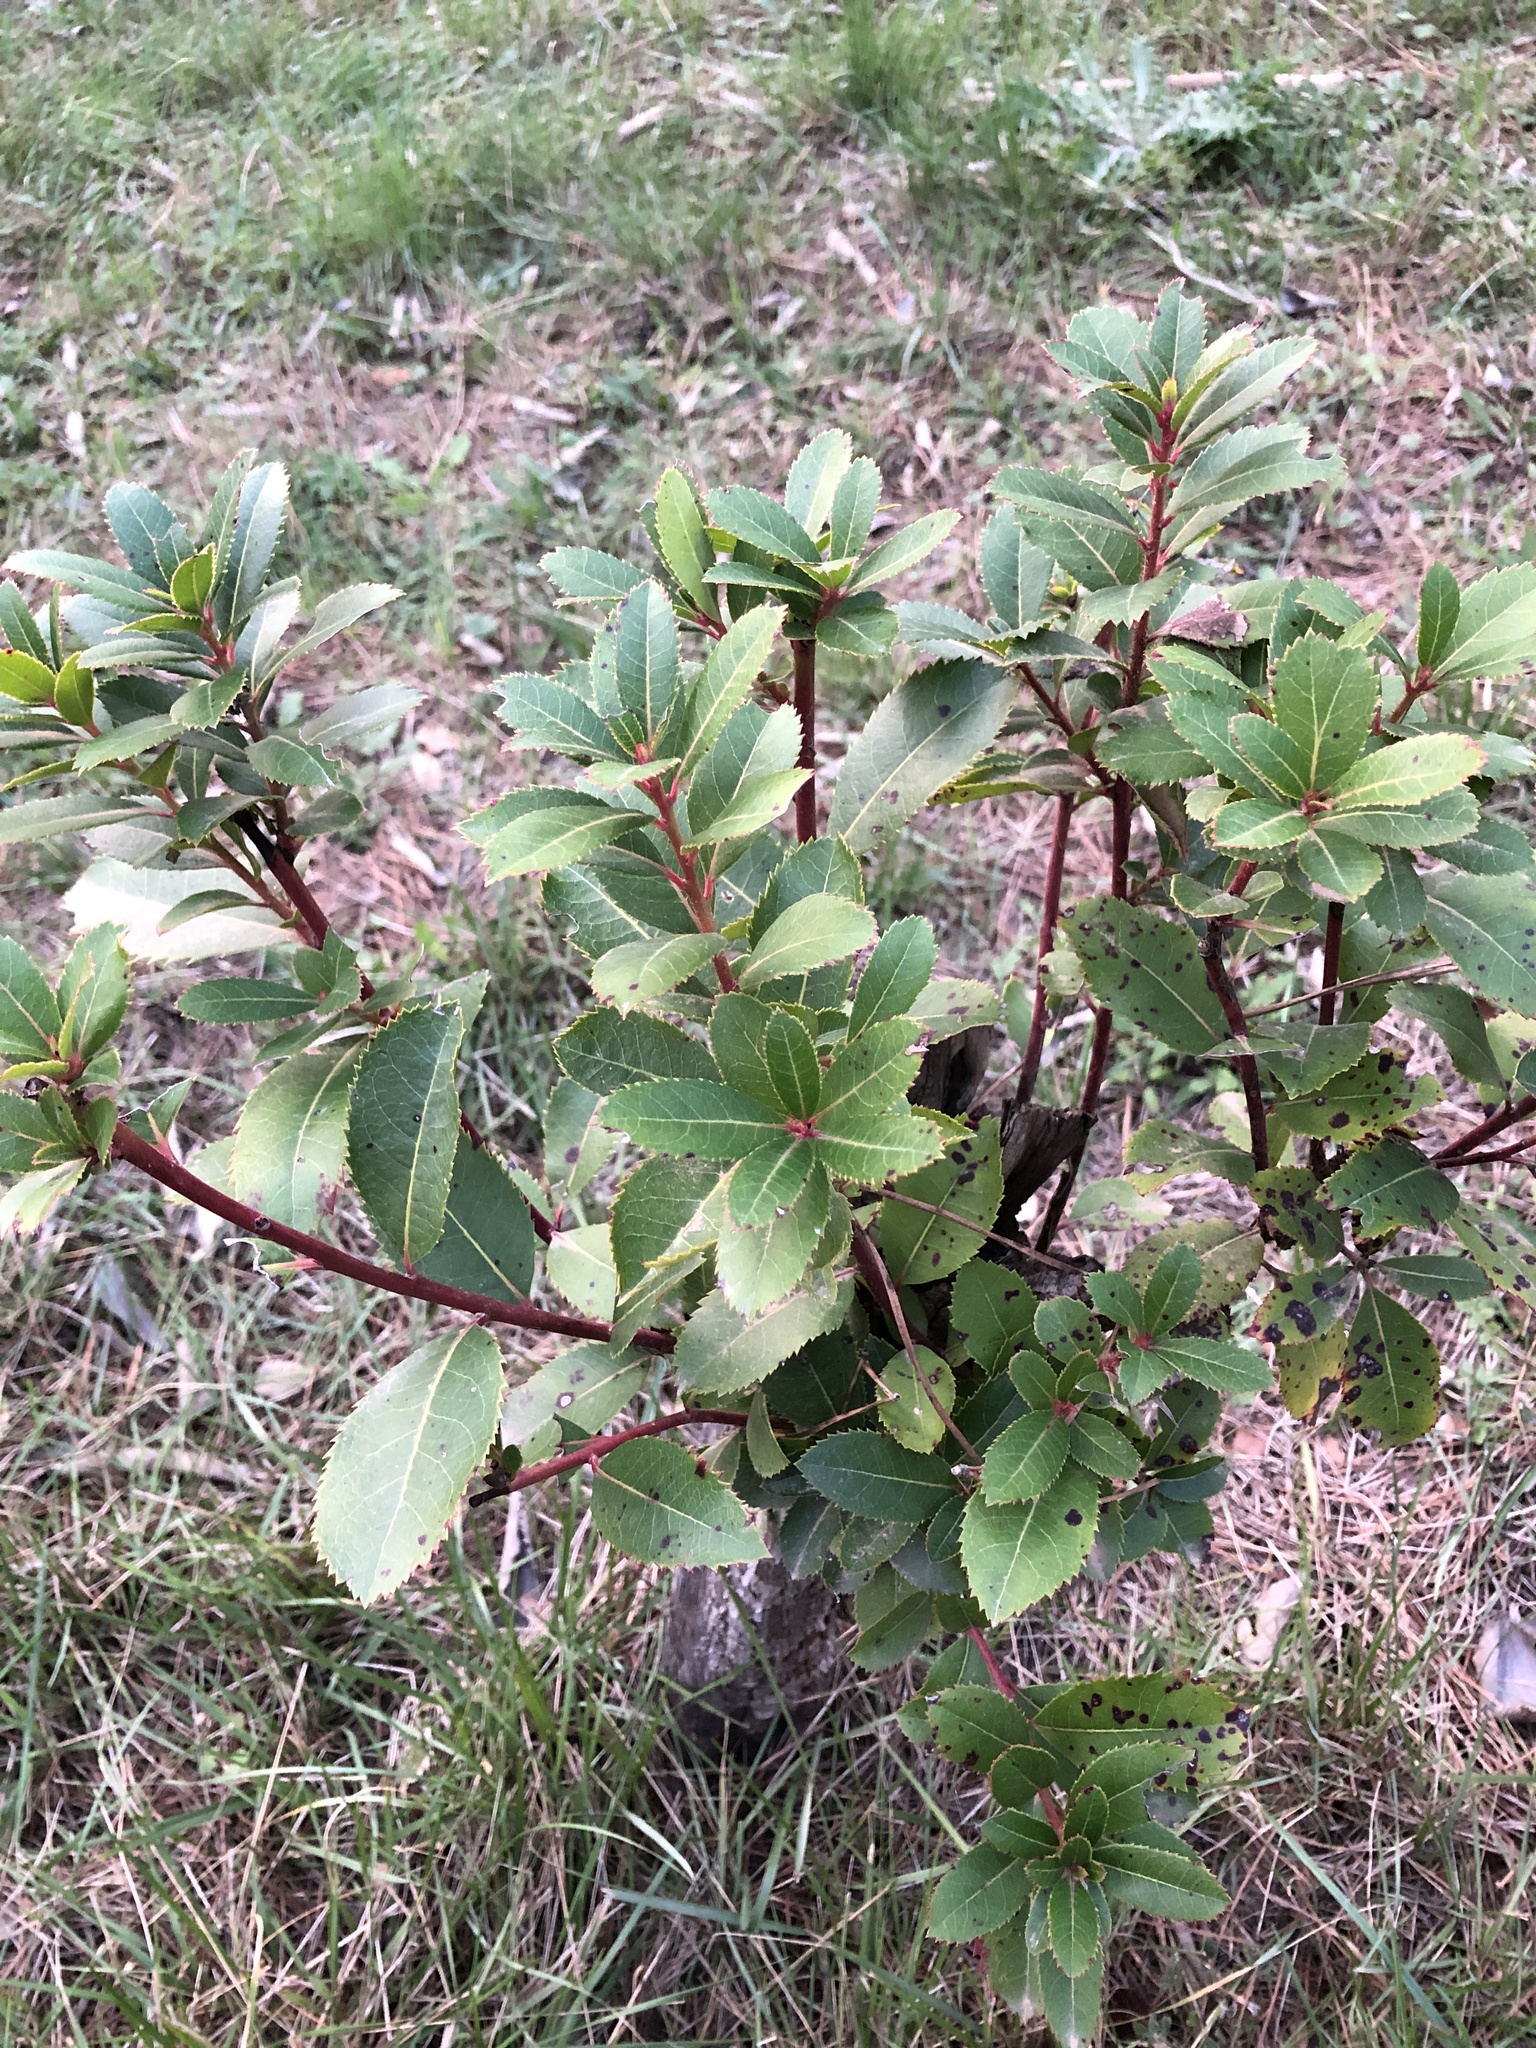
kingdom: Plantae
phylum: Tracheophyta
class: Magnoliopsida
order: Ericales
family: Ericaceae
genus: Arbutus
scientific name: Arbutus unedo
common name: Strawberry-tree
